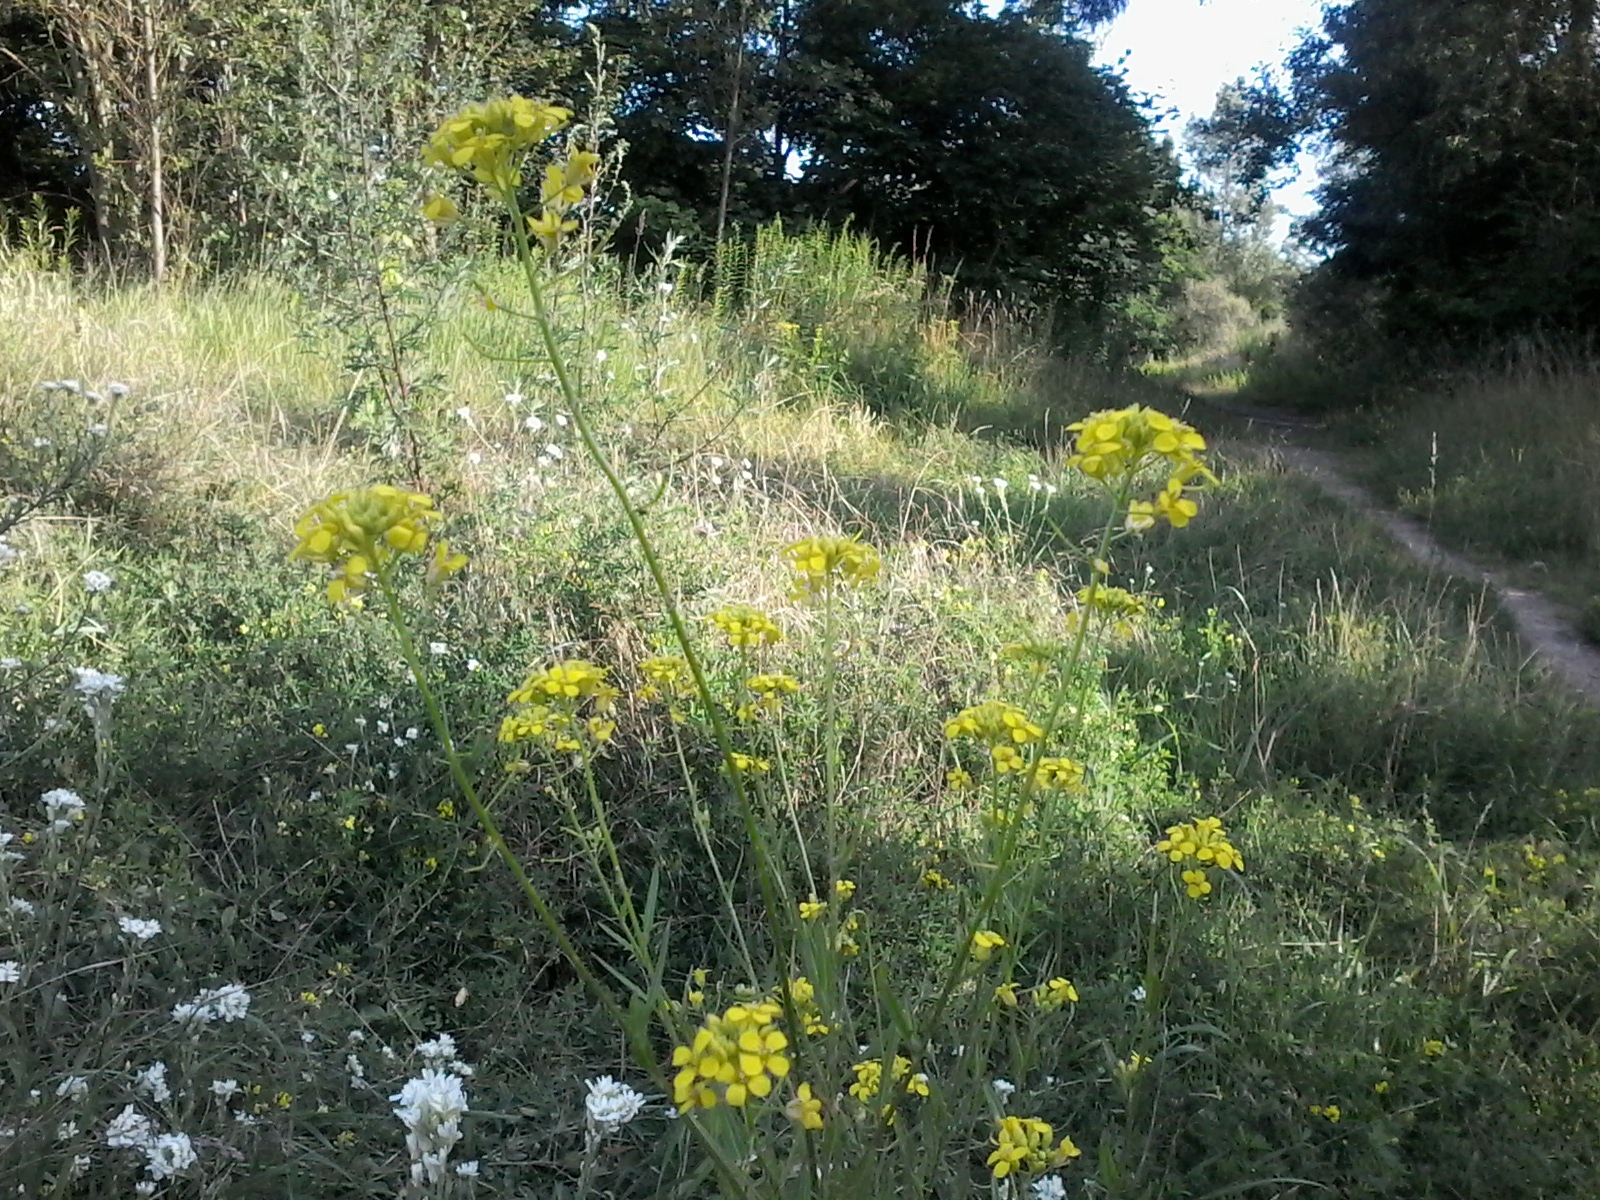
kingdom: Plantae
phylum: Tracheophyta
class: Magnoliopsida
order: Brassicales
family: Brassicaceae
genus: Sisymbrium
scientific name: Sisymbrium loeselii
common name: False london-rocket
